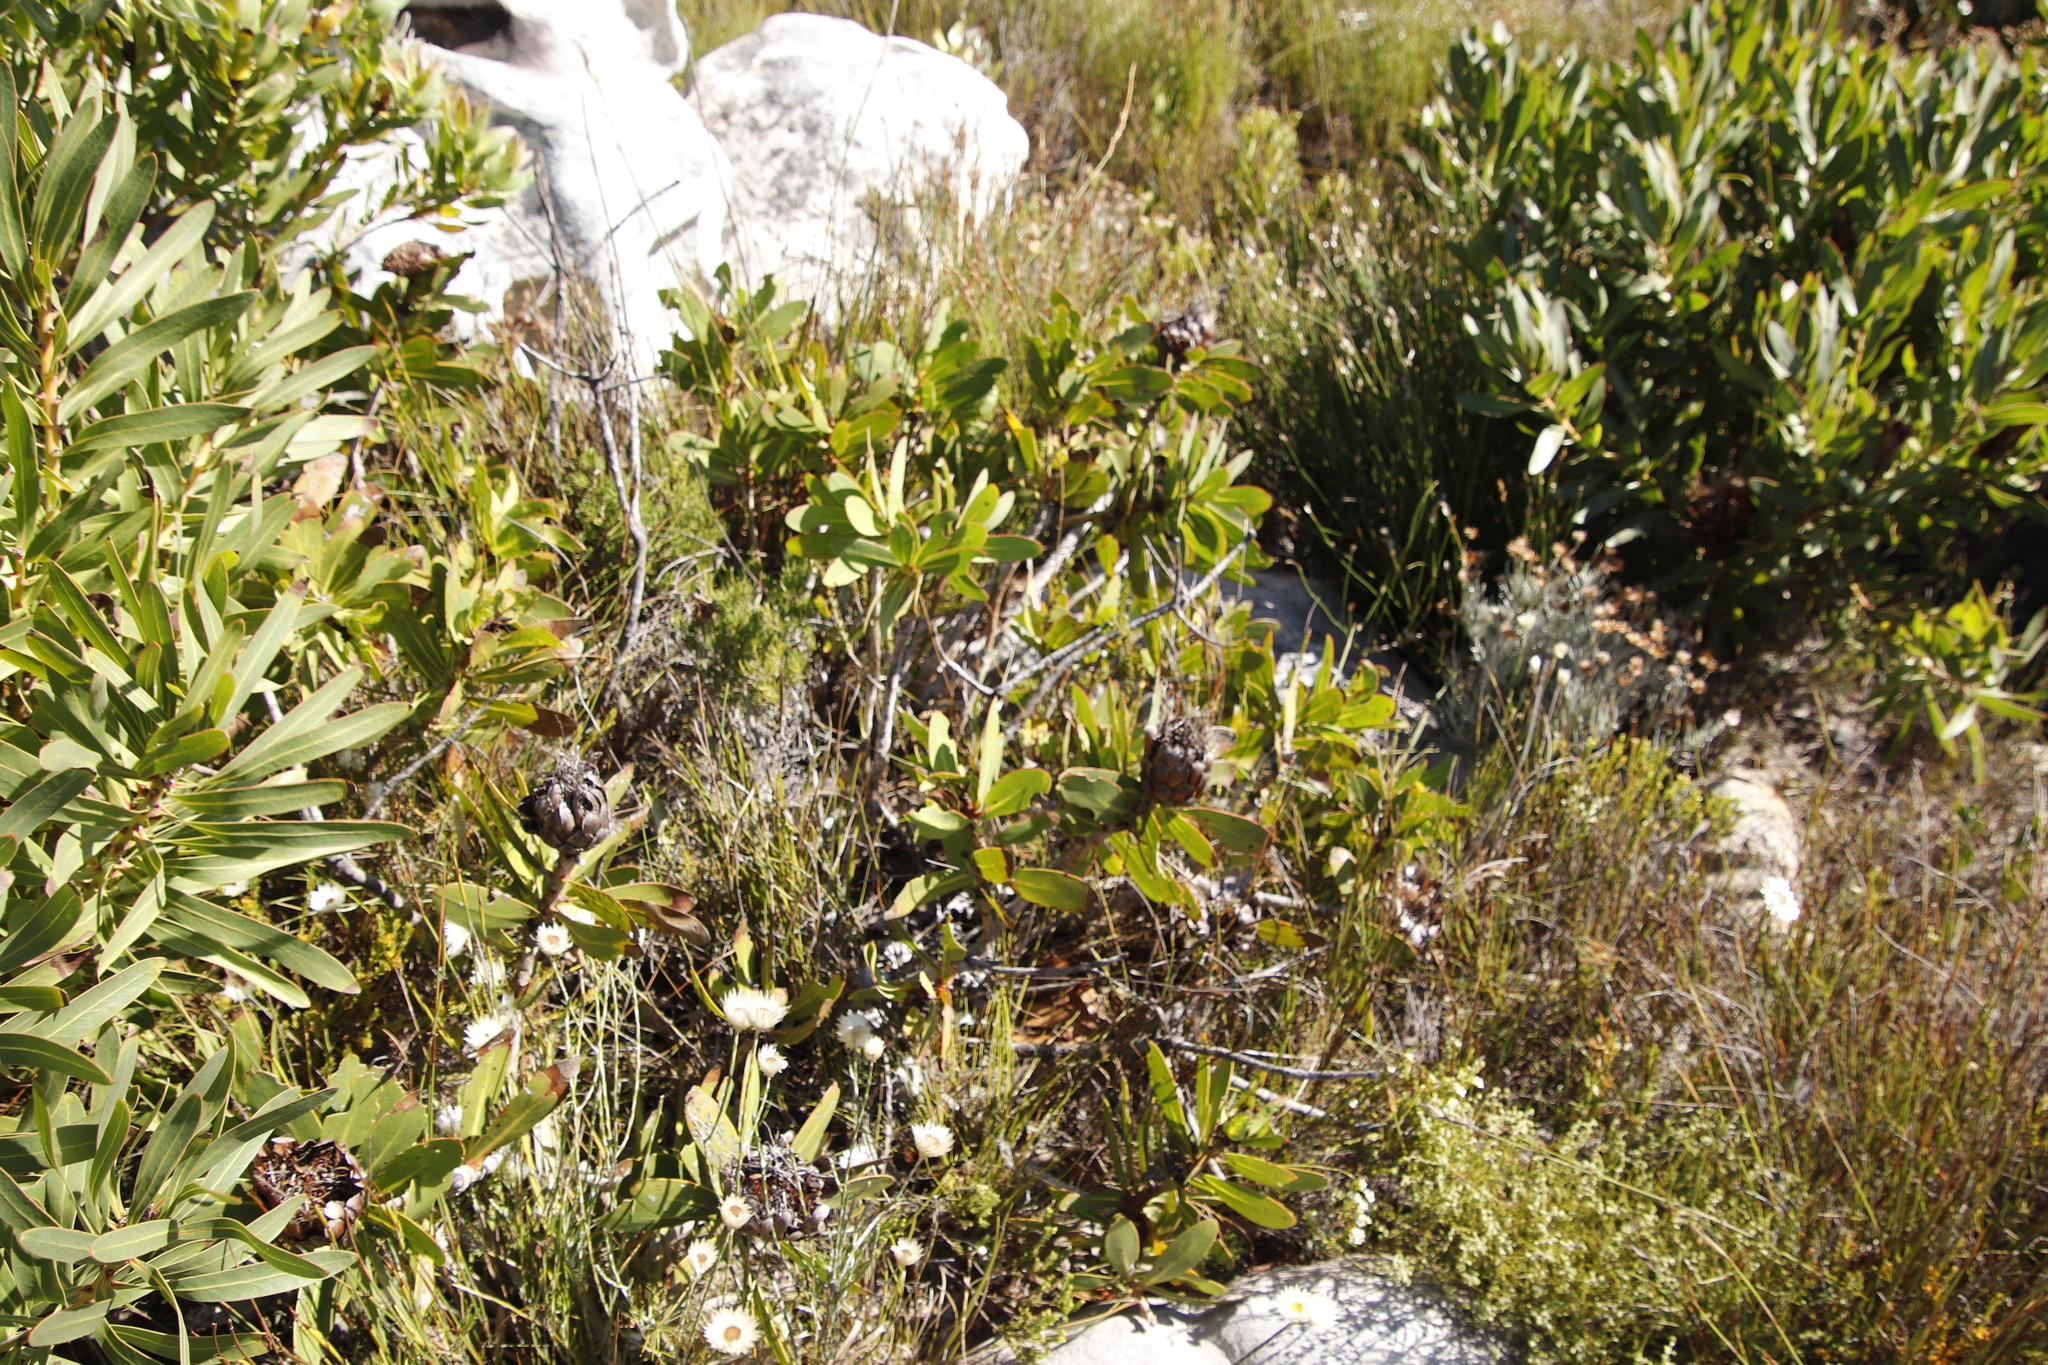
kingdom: Plantae
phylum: Tracheophyta
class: Magnoliopsida
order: Proteales
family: Proteaceae
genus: Protea
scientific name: Protea nitida
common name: Tree protea
